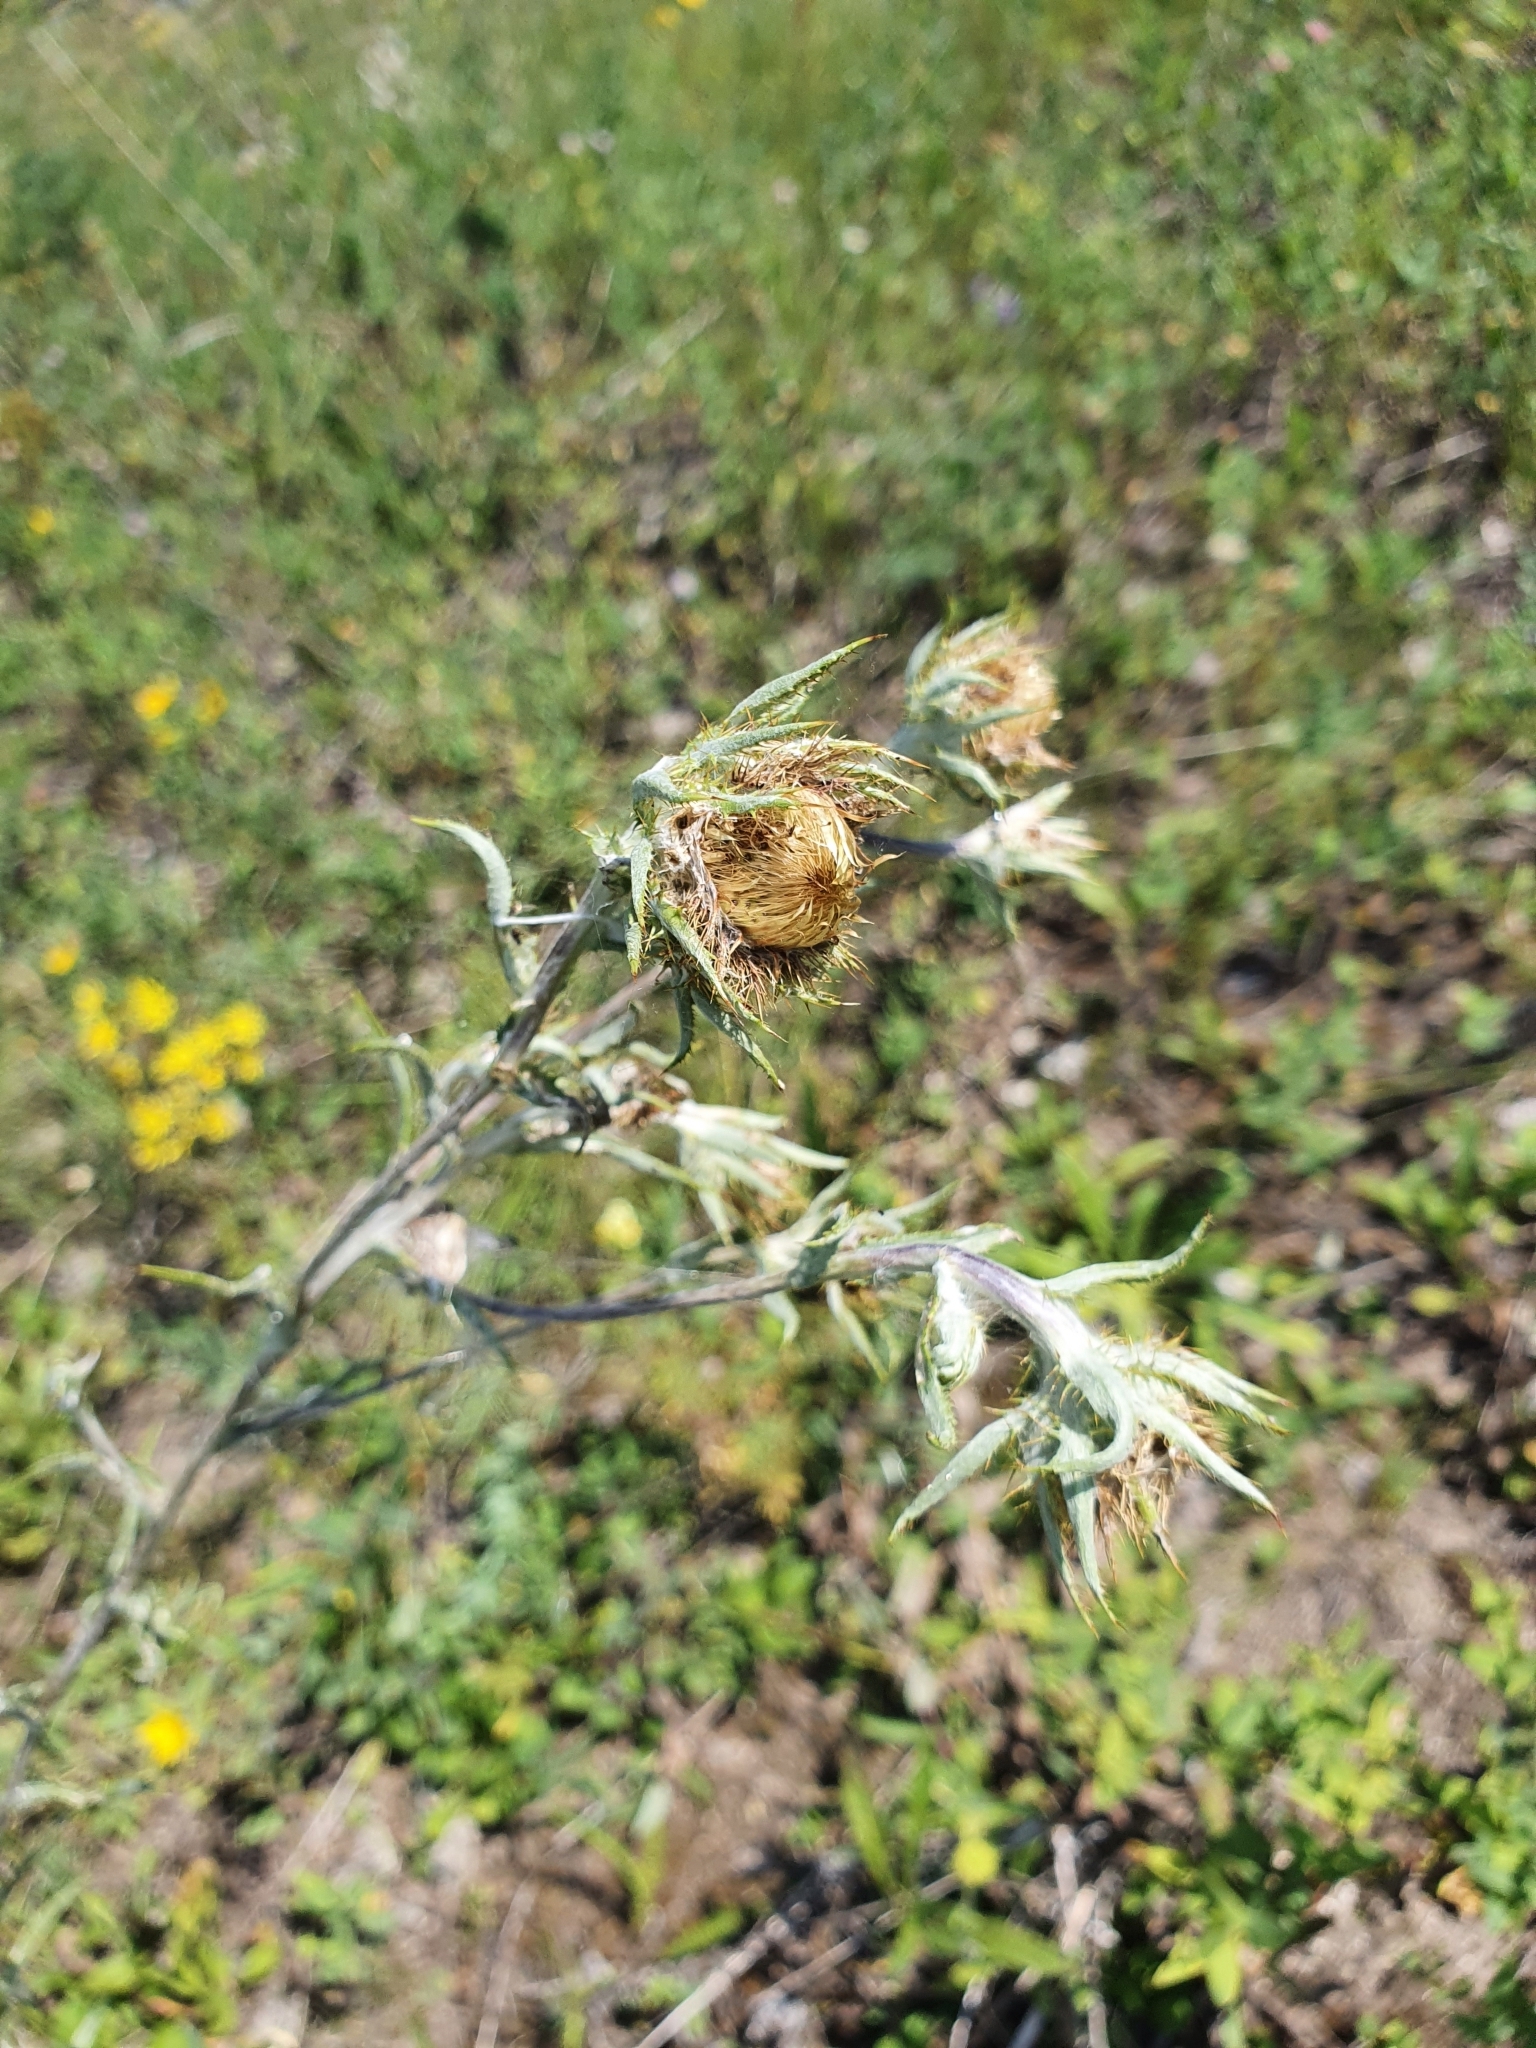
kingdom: Plantae
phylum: Tracheophyta
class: Magnoliopsida
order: Asterales
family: Asteraceae
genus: Carlina
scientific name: Carlina biebersteinii
